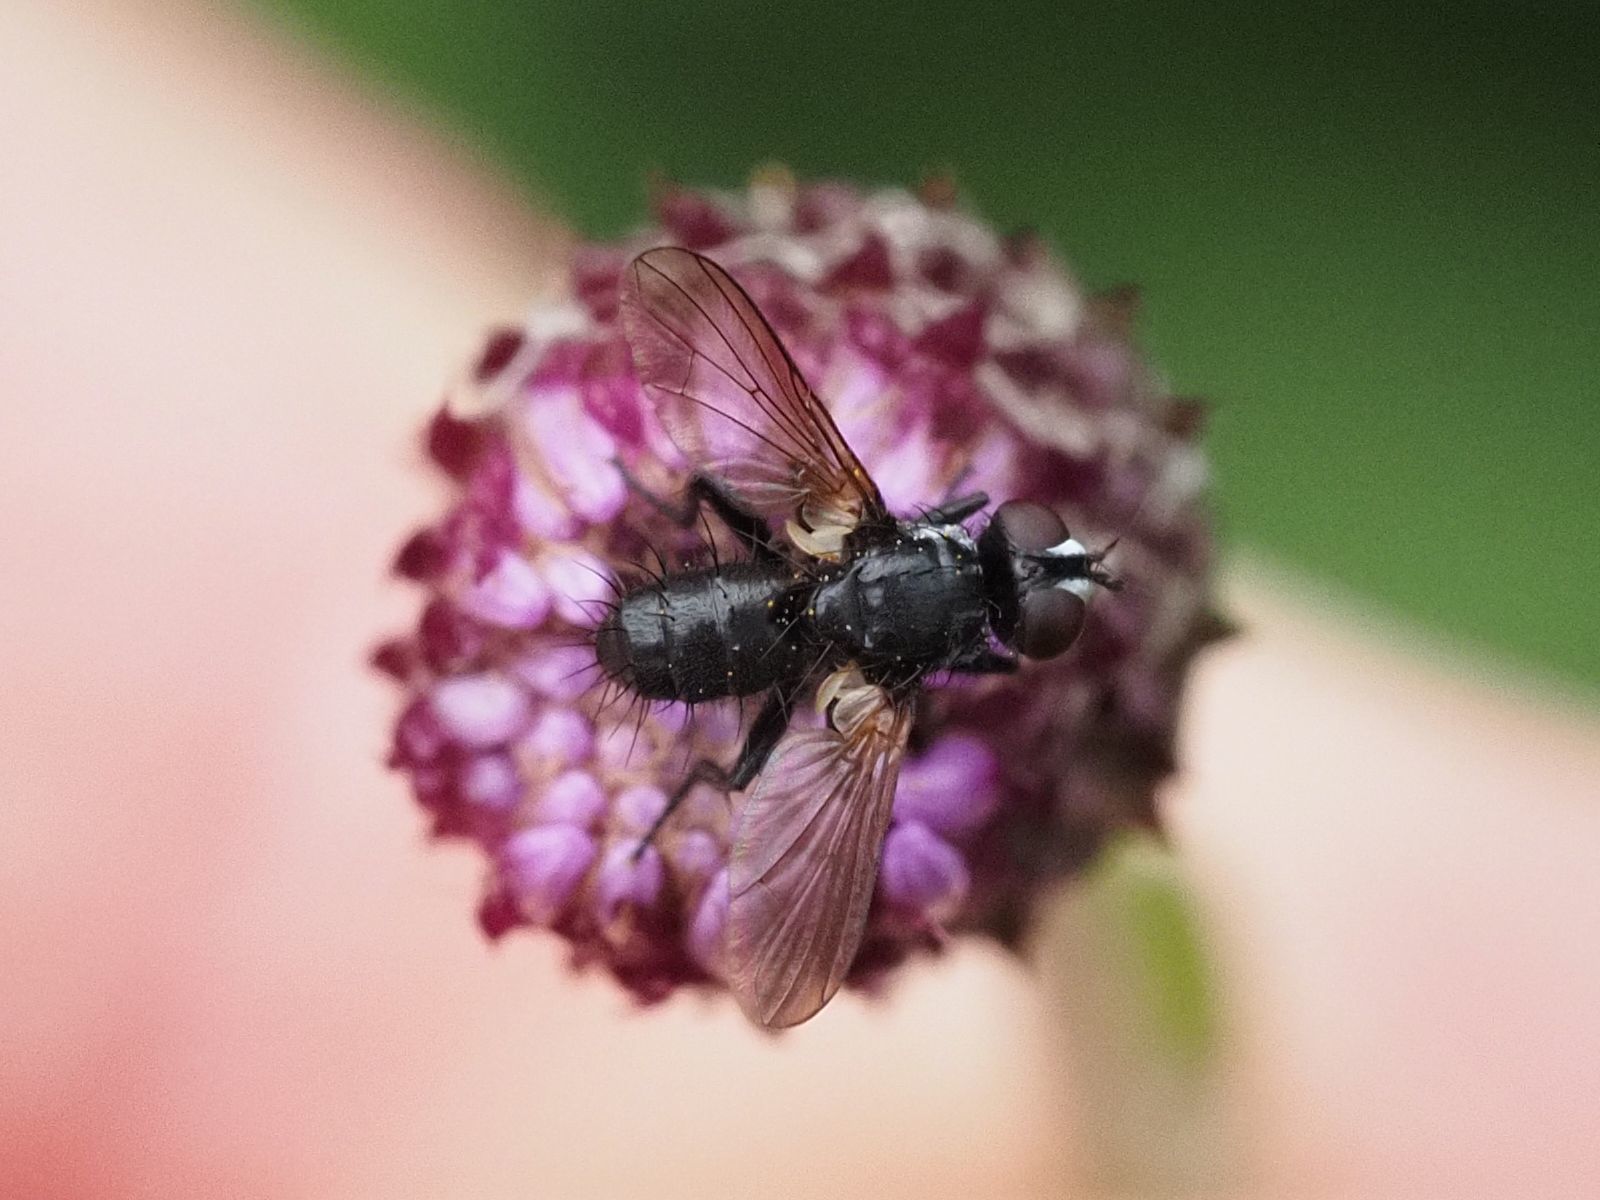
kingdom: Animalia
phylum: Arthropoda
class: Insecta
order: Diptera
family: Tachinidae
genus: Phania
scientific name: Phania funesta
